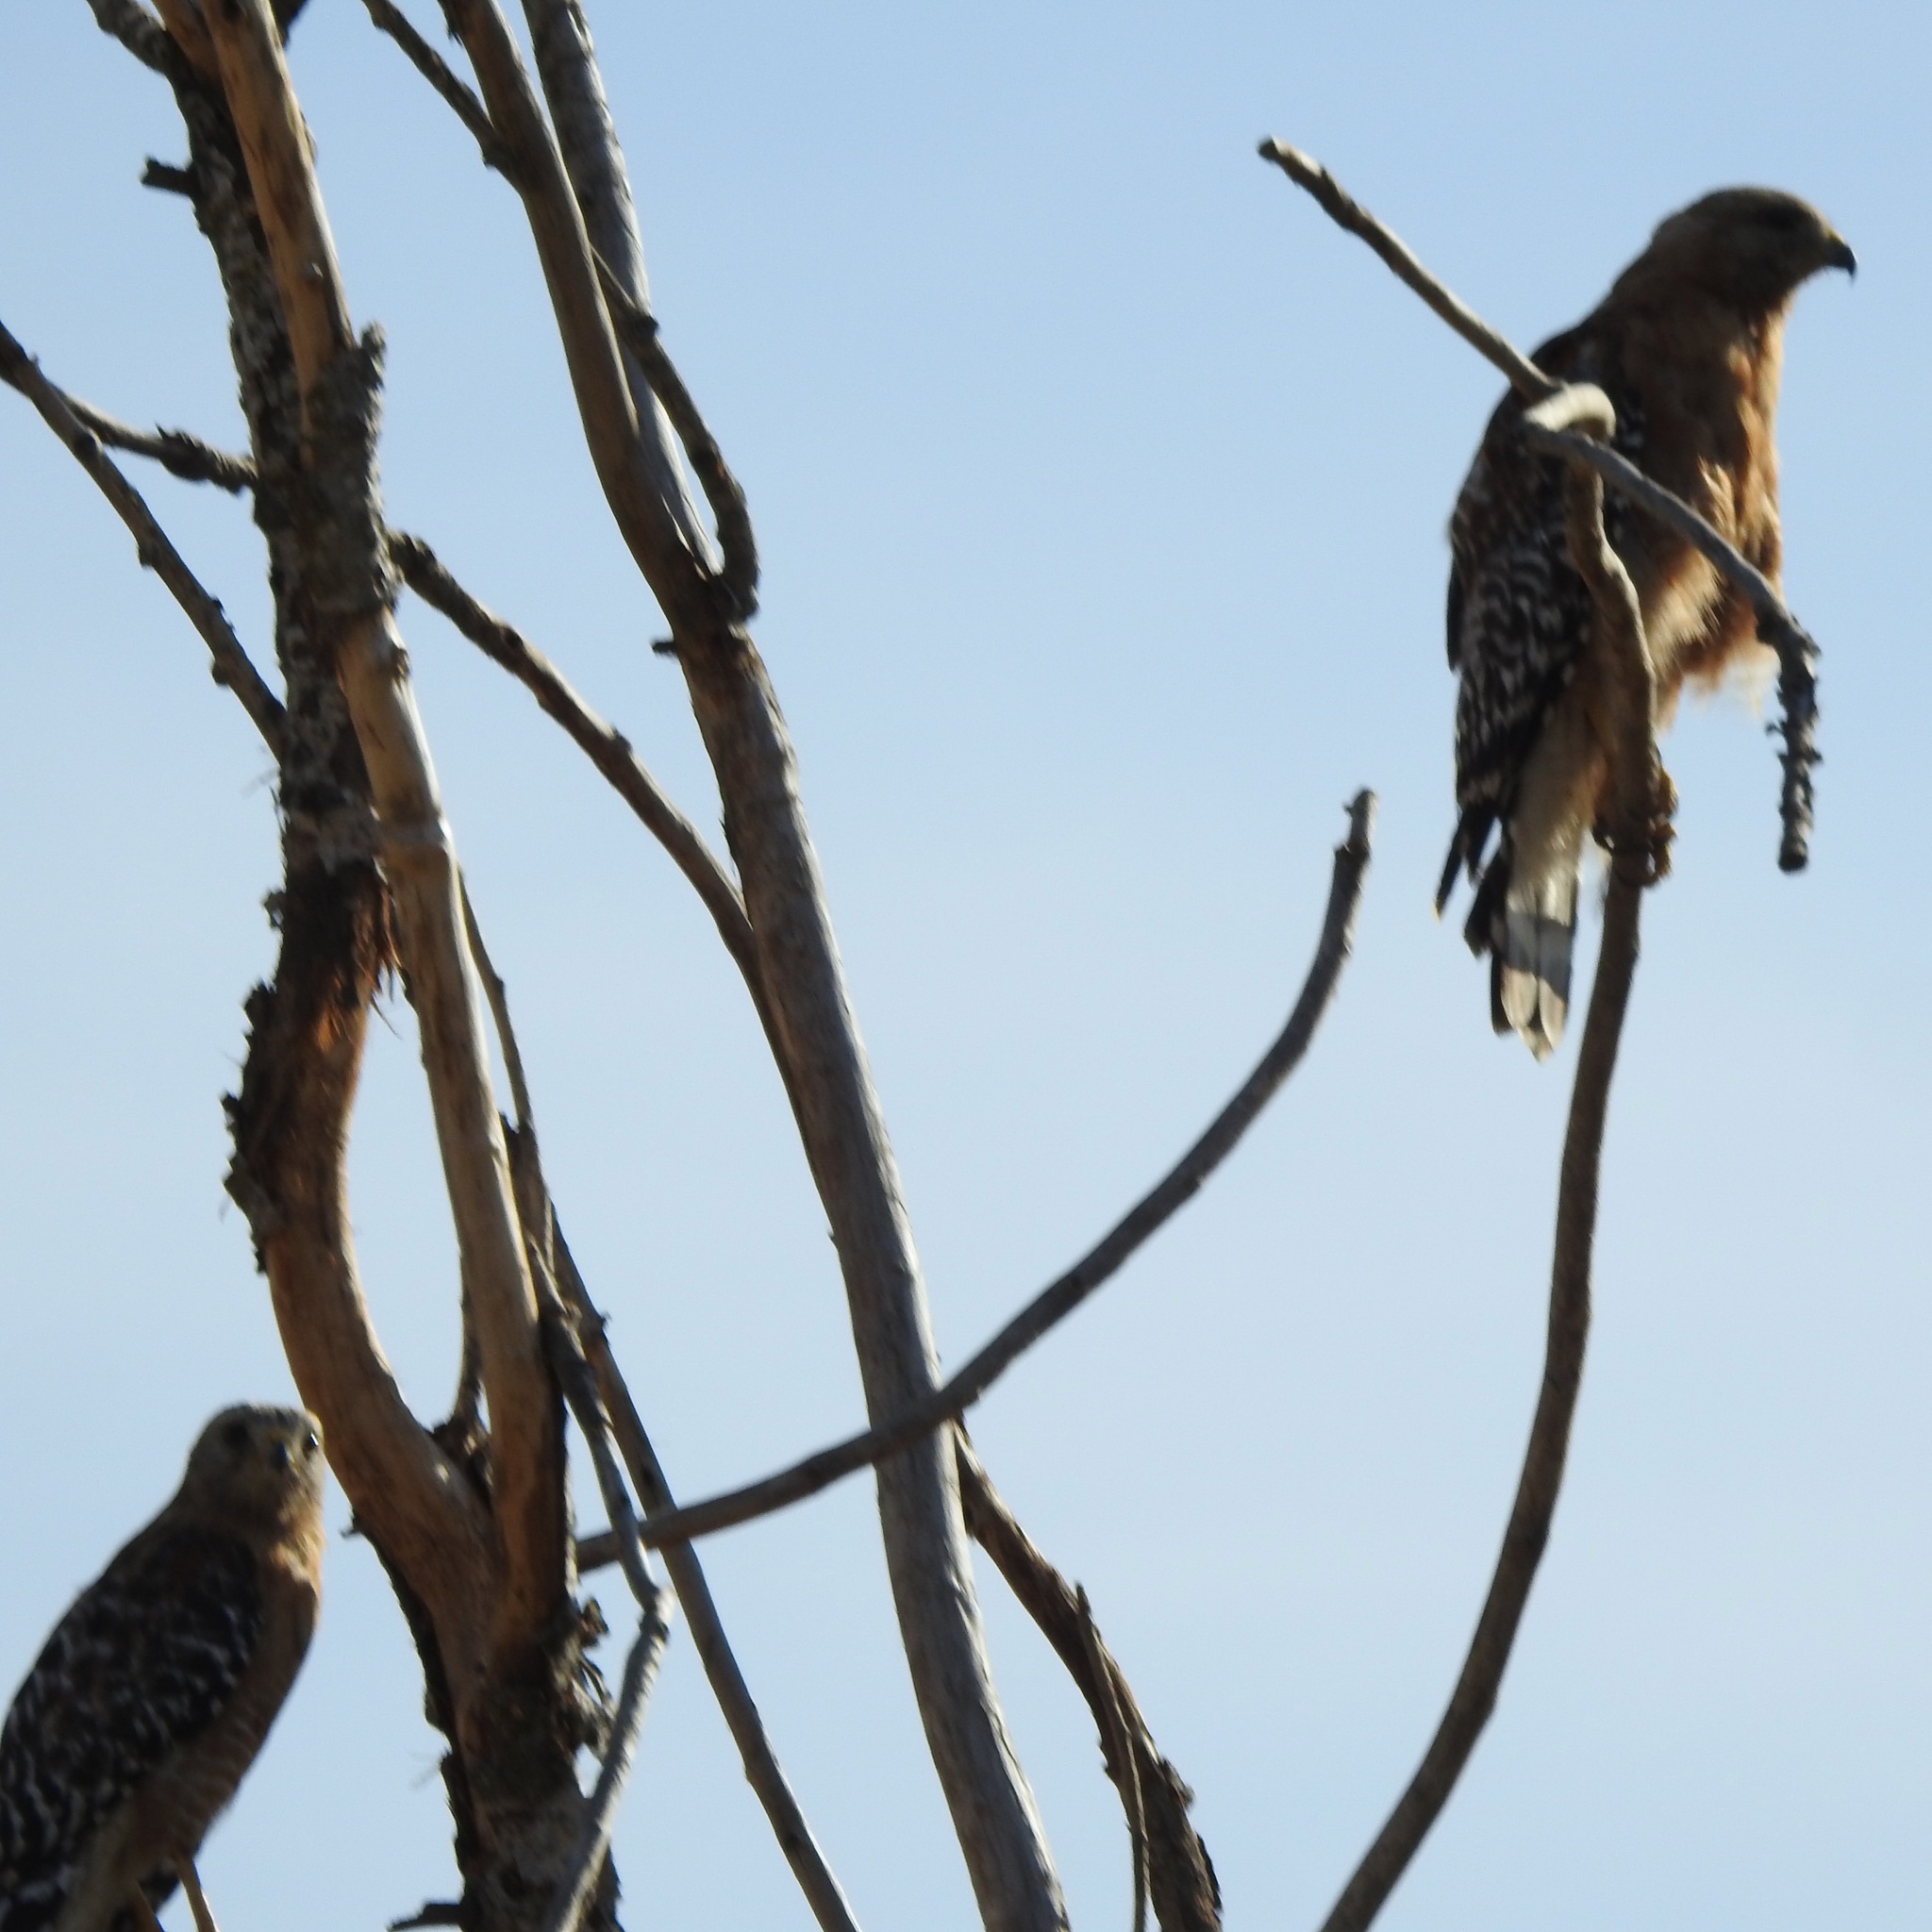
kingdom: Animalia
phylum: Chordata
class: Aves
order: Accipitriformes
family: Accipitridae
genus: Buteo
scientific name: Buteo lineatus
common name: Red-shouldered hawk
